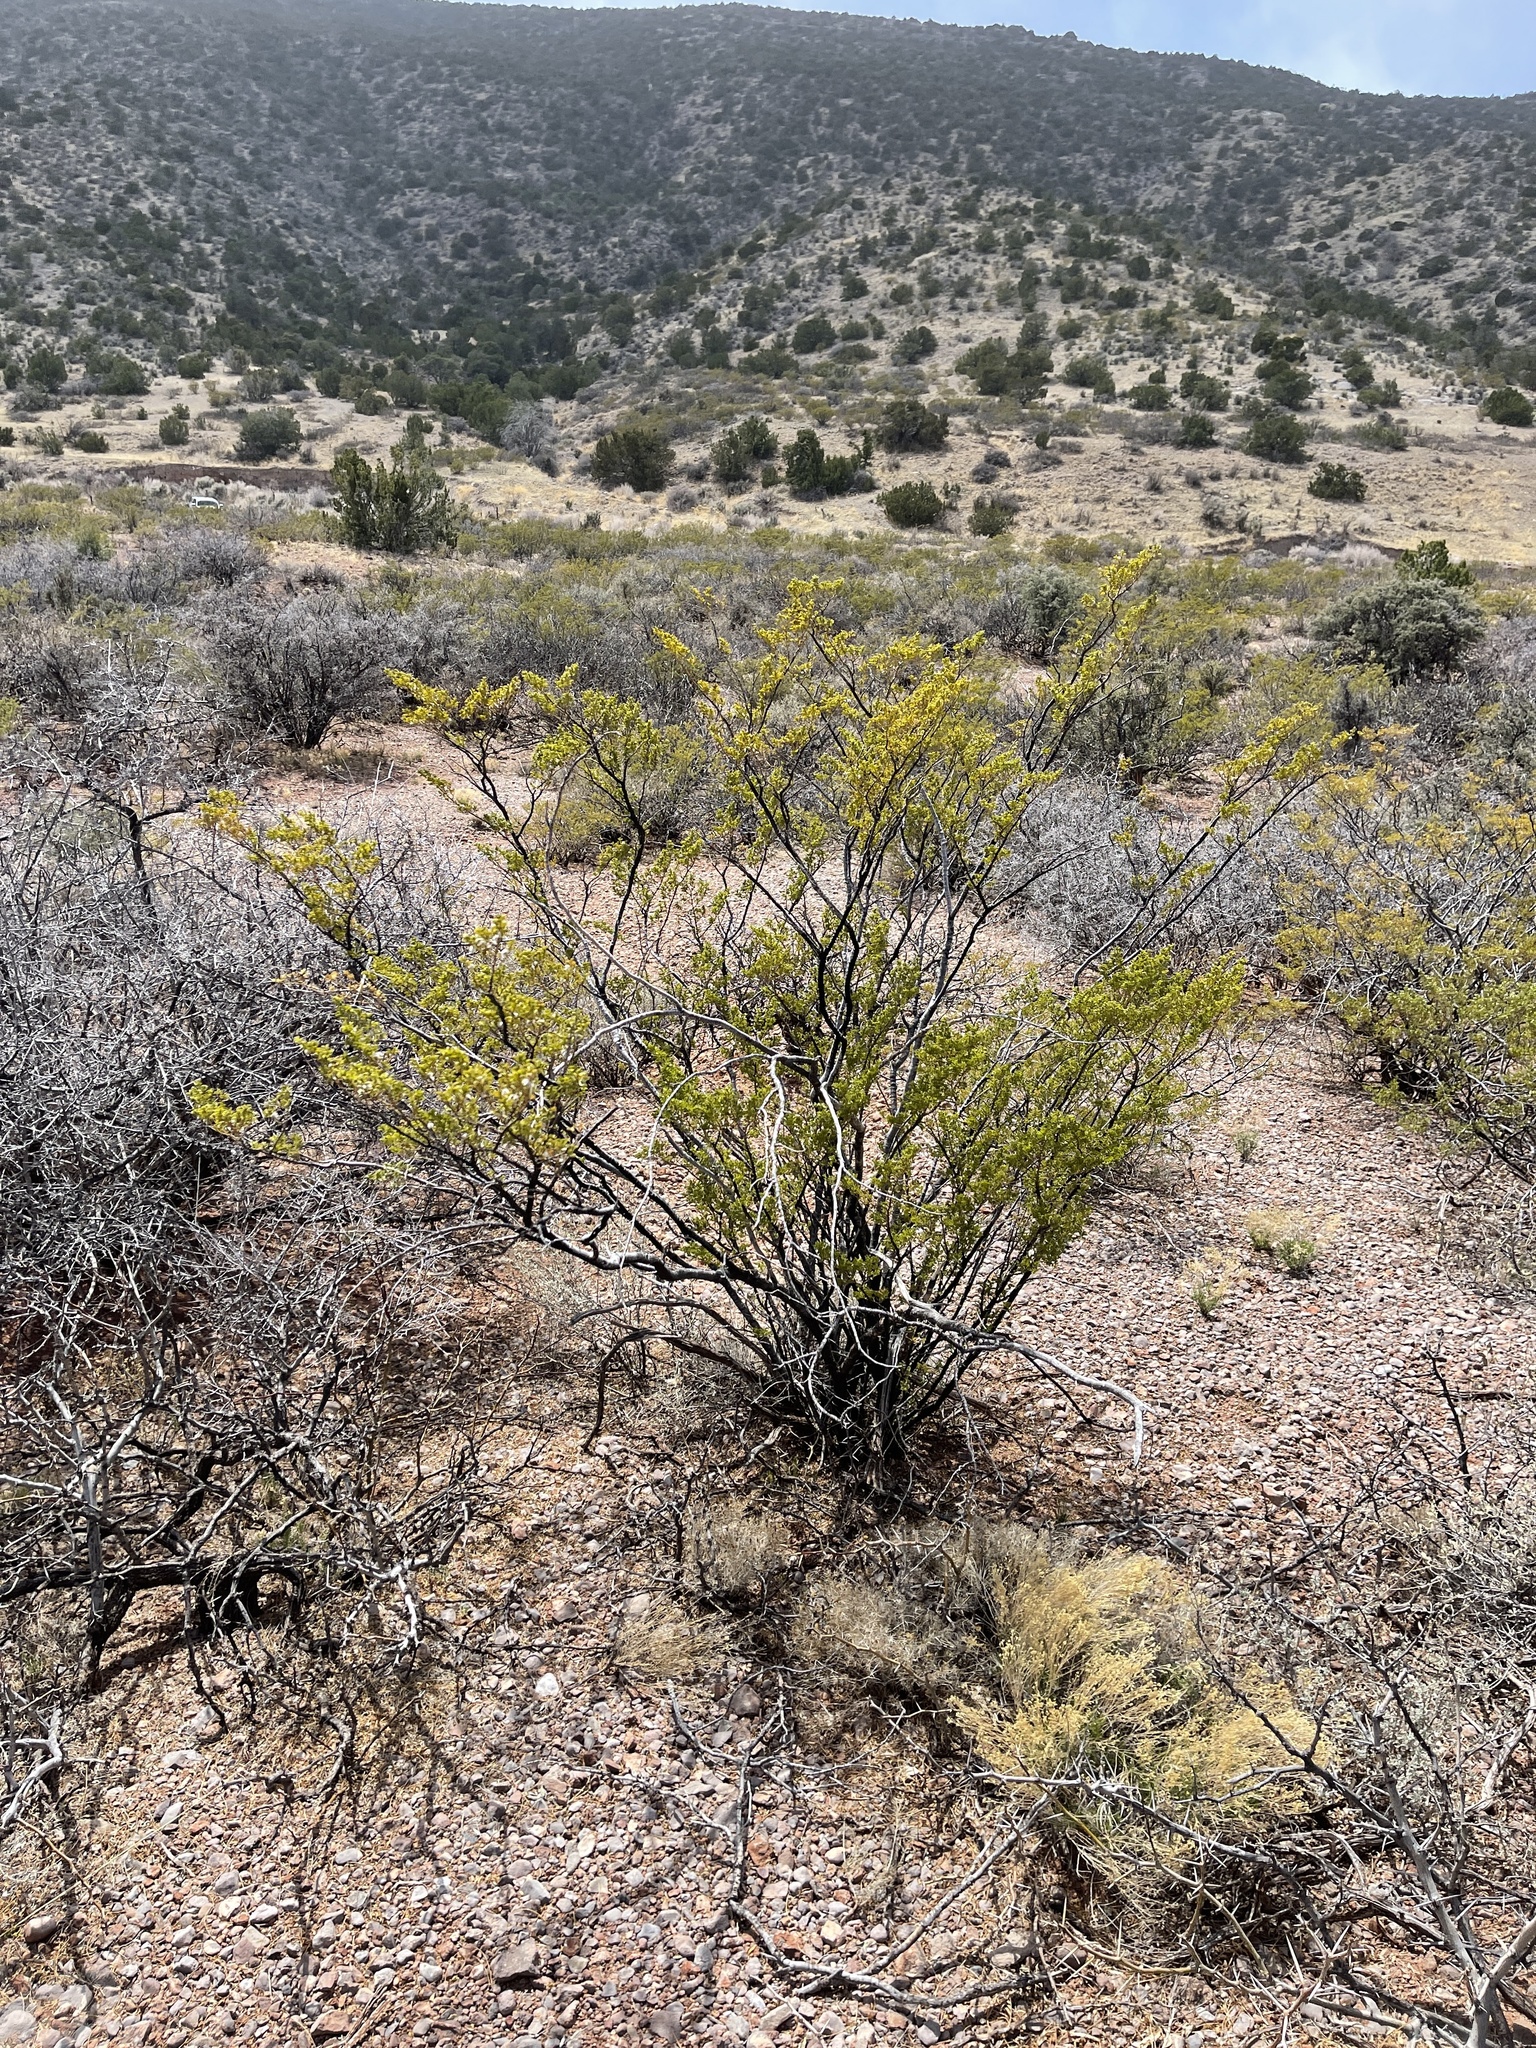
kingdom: Plantae
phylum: Tracheophyta
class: Magnoliopsida
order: Zygophyllales
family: Zygophyllaceae
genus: Larrea
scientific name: Larrea tridentata
